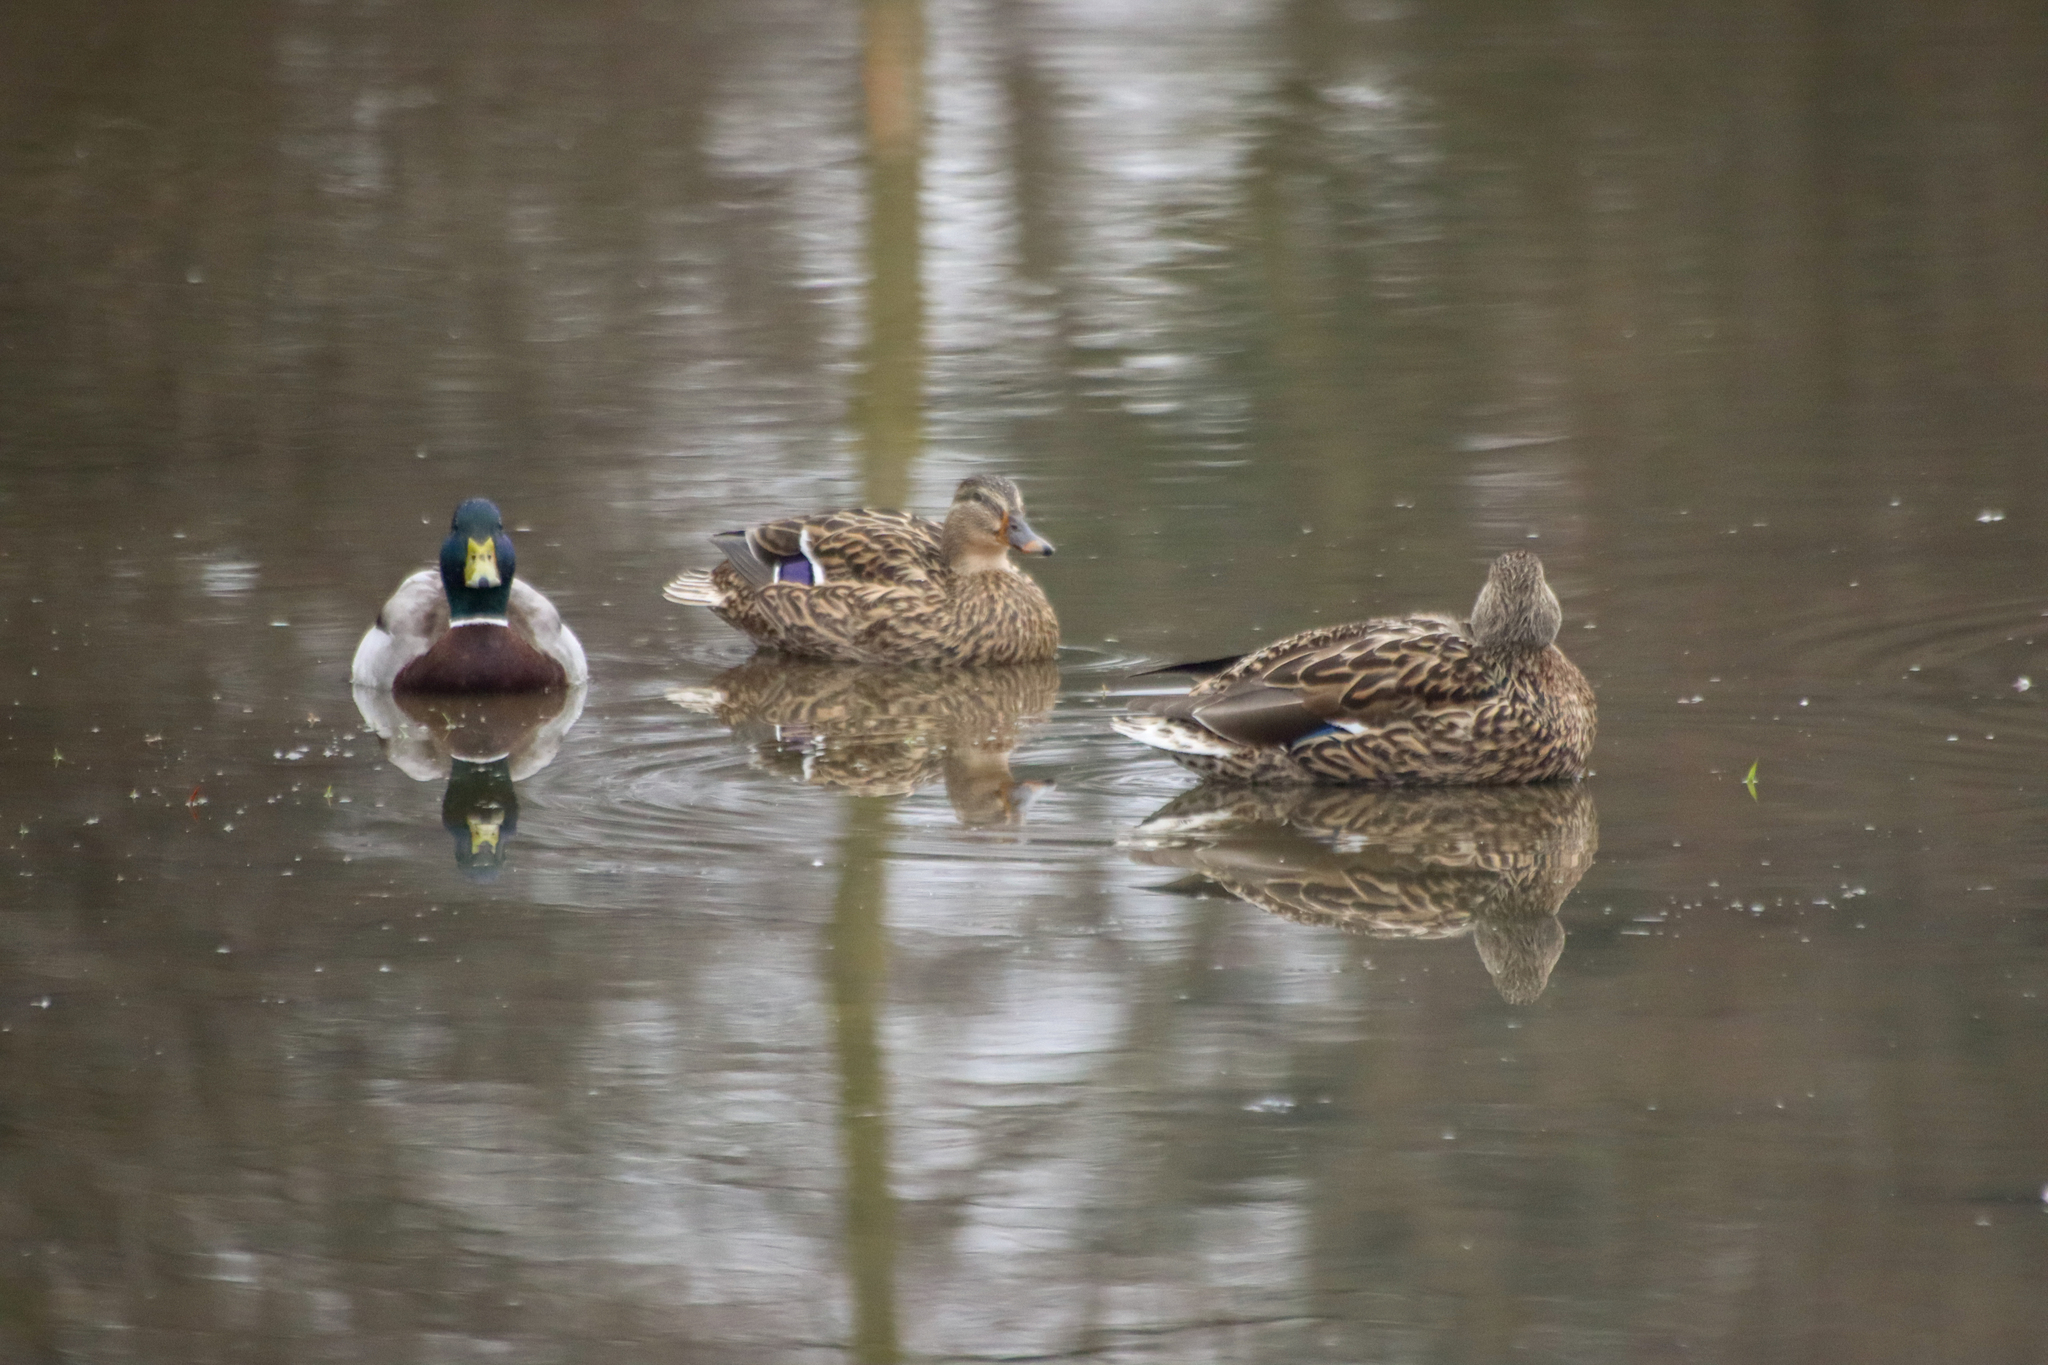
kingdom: Animalia
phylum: Chordata
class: Aves
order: Anseriformes
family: Anatidae
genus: Anas
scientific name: Anas platyrhynchos
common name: Mallard
